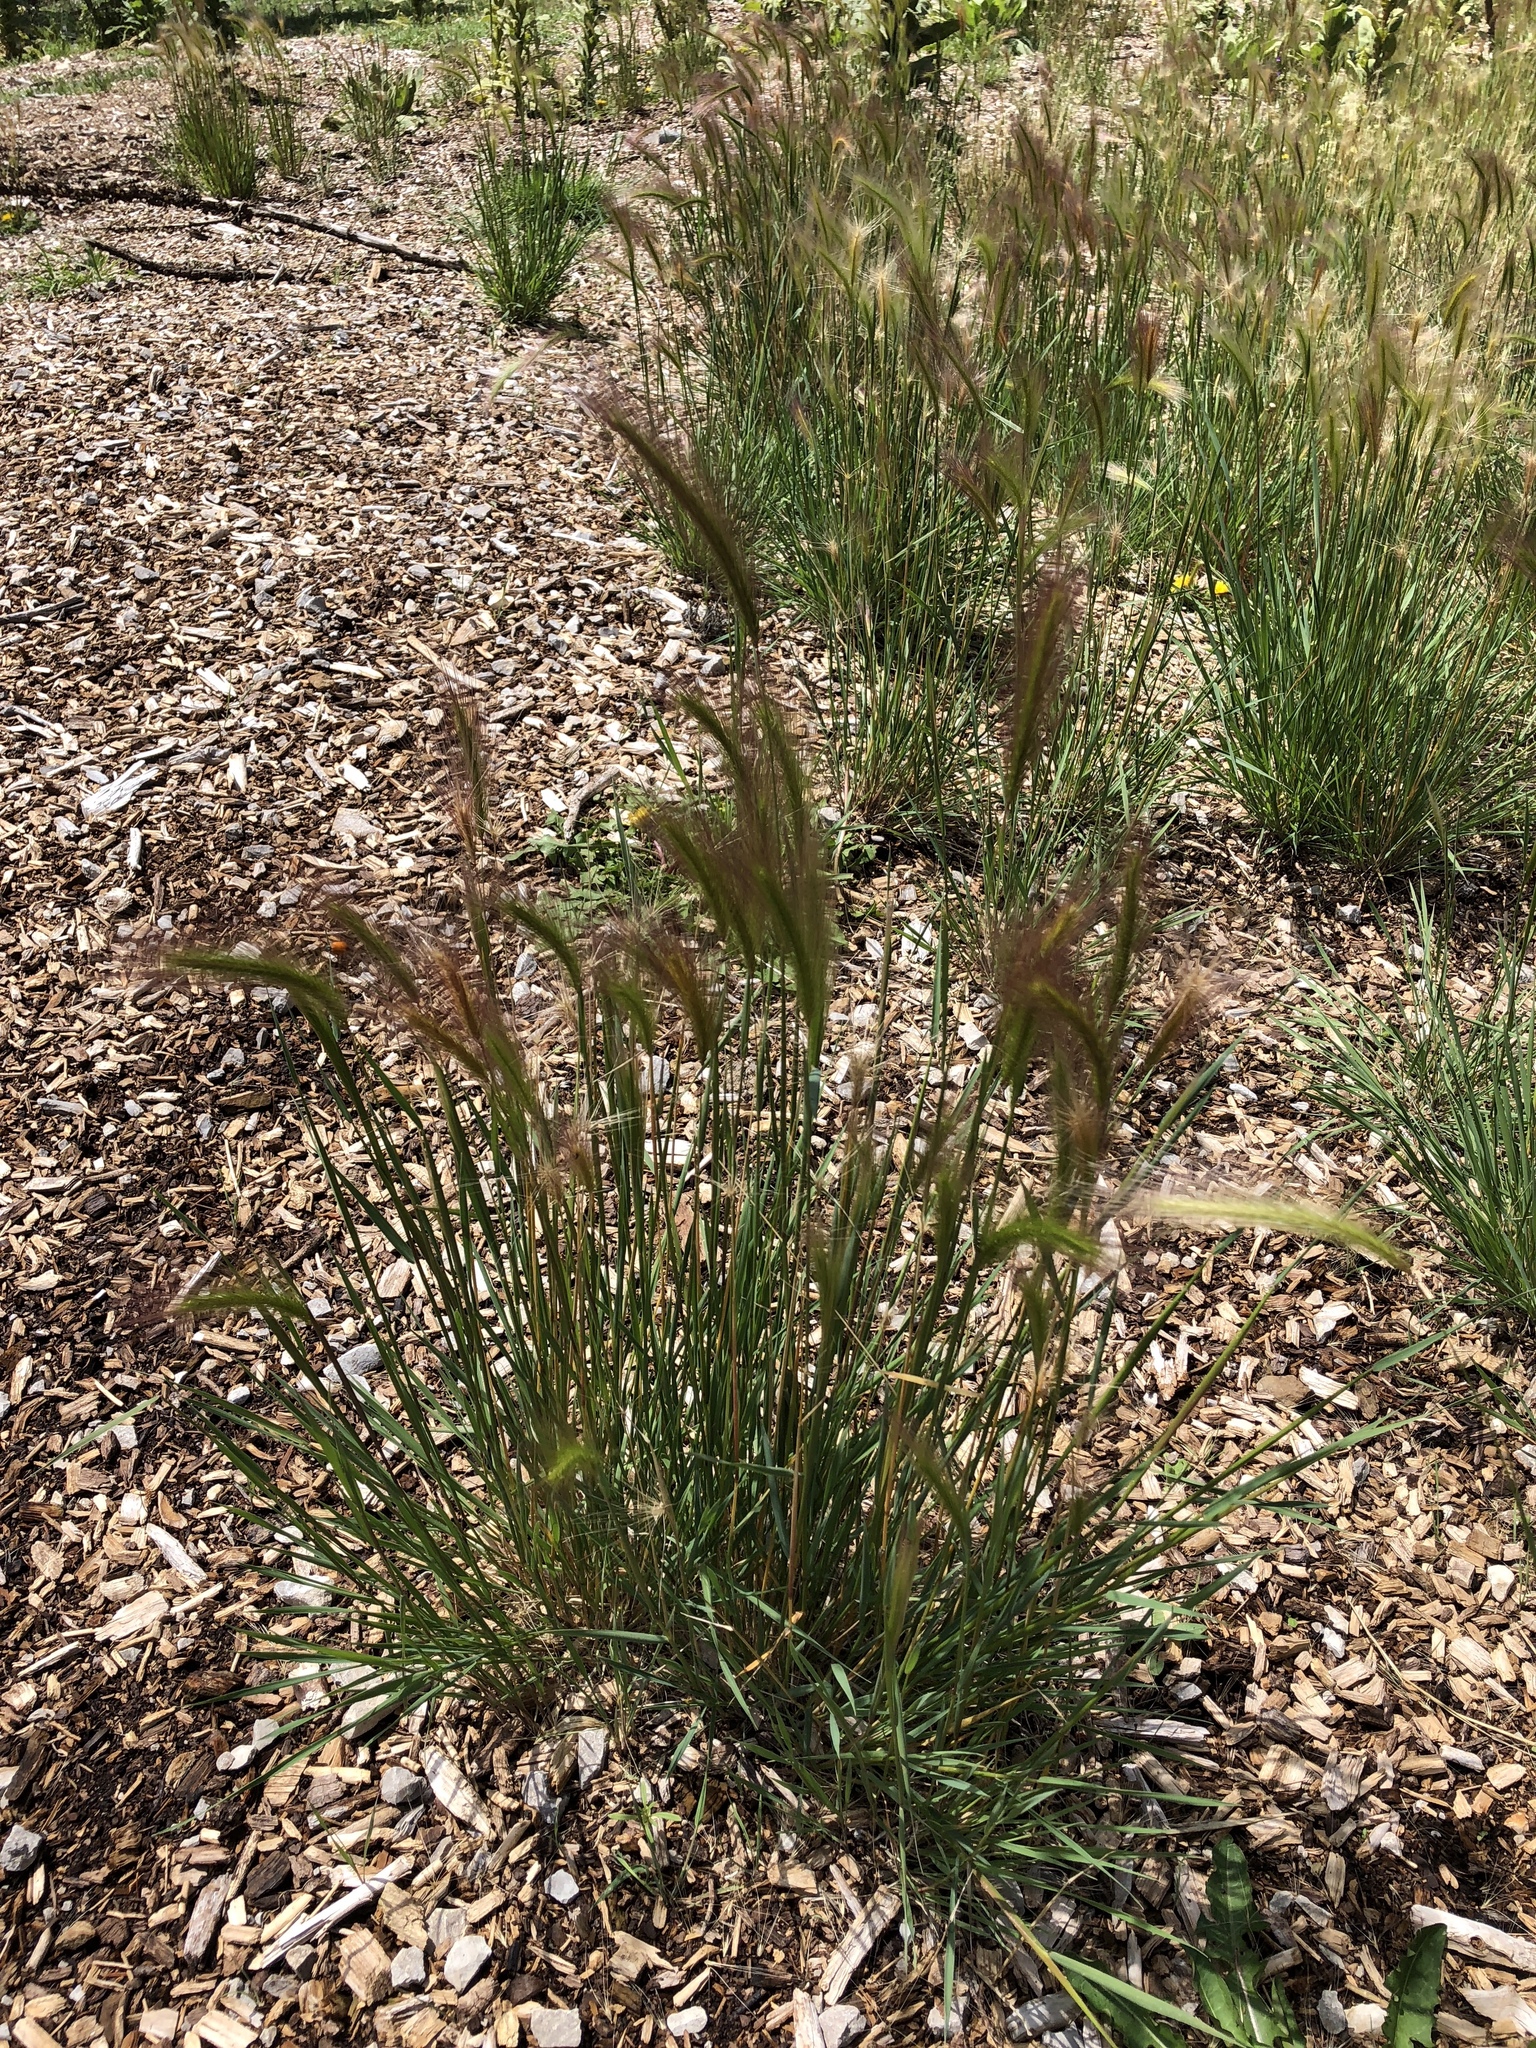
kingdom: Plantae
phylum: Tracheophyta
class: Liliopsida
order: Poales
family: Poaceae
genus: Hordeum
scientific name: Hordeum jubatum
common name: Foxtail barley
